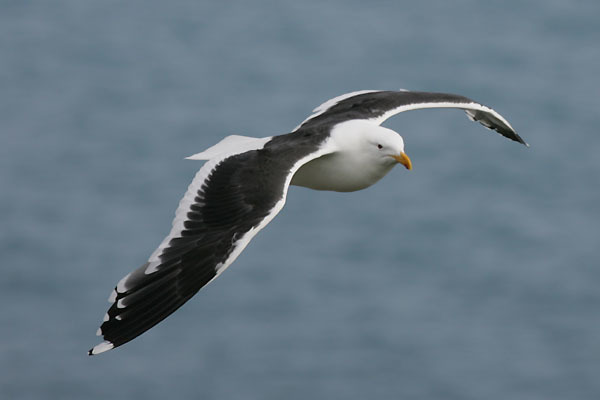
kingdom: Animalia
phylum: Chordata
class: Aves
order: Charadriiformes
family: Laridae
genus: Larus
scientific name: Larus dominicanus
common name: Kelp gull
